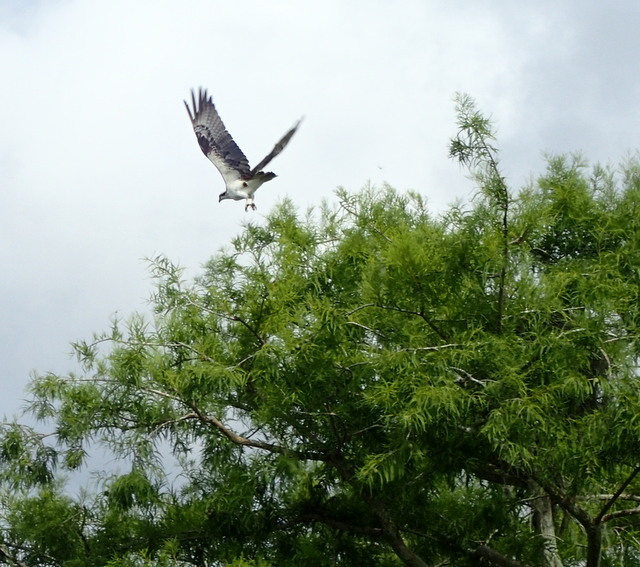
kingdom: Animalia
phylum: Chordata
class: Aves
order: Accipitriformes
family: Pandionidae
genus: Pandion
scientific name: Pandion haliaetus
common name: Osprey
